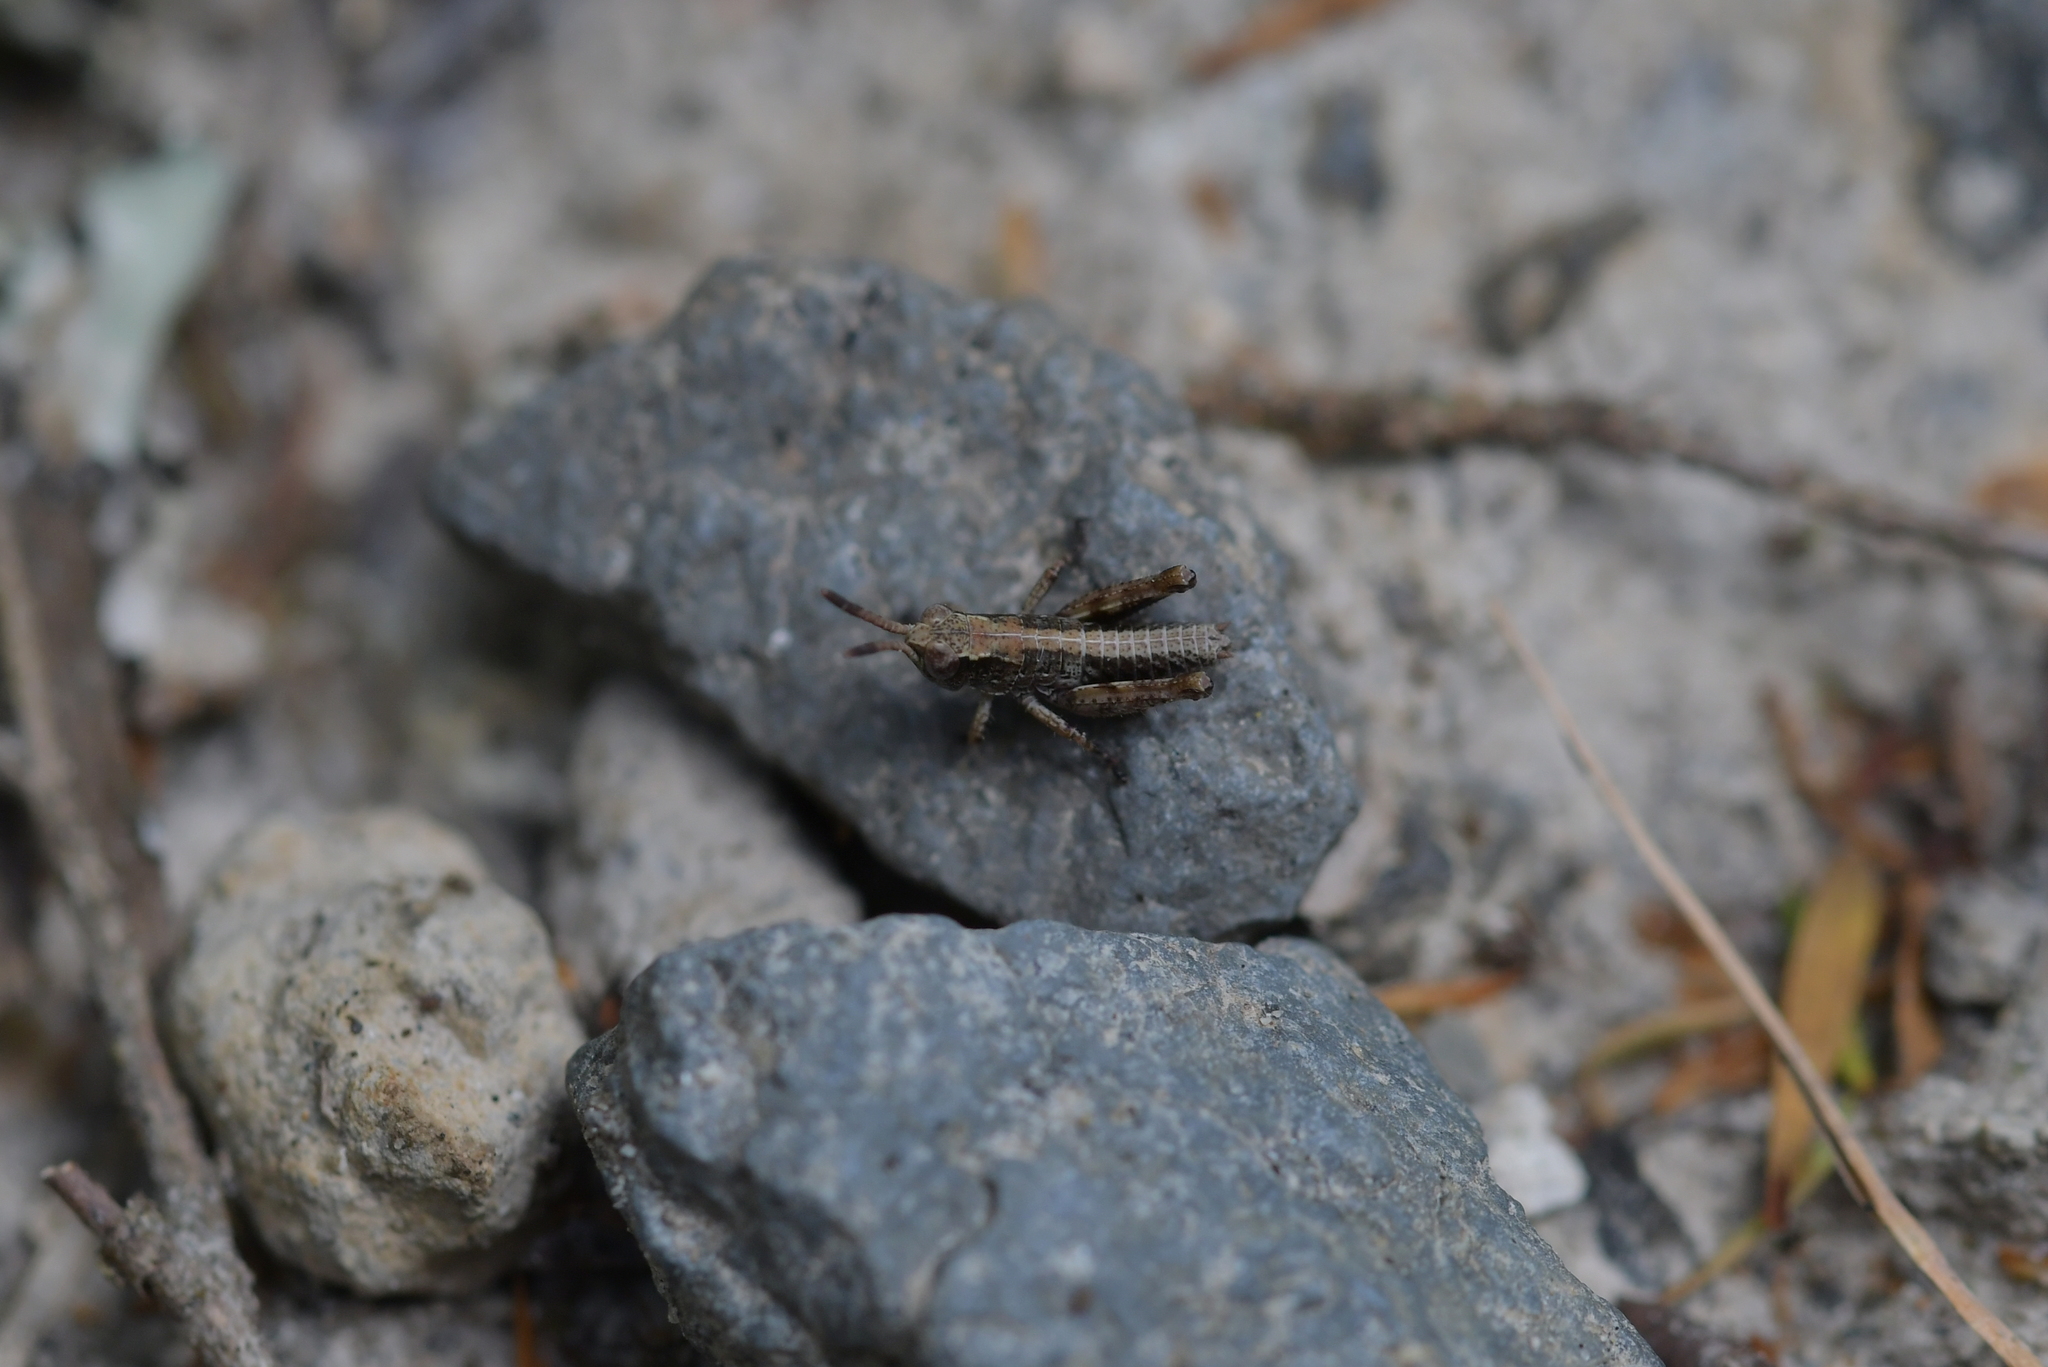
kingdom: Animalia
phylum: Arthropoda
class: Insecta
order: Orthoptera
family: Acrididae
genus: Phaulacridium
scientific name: Phaulacridium marginale
